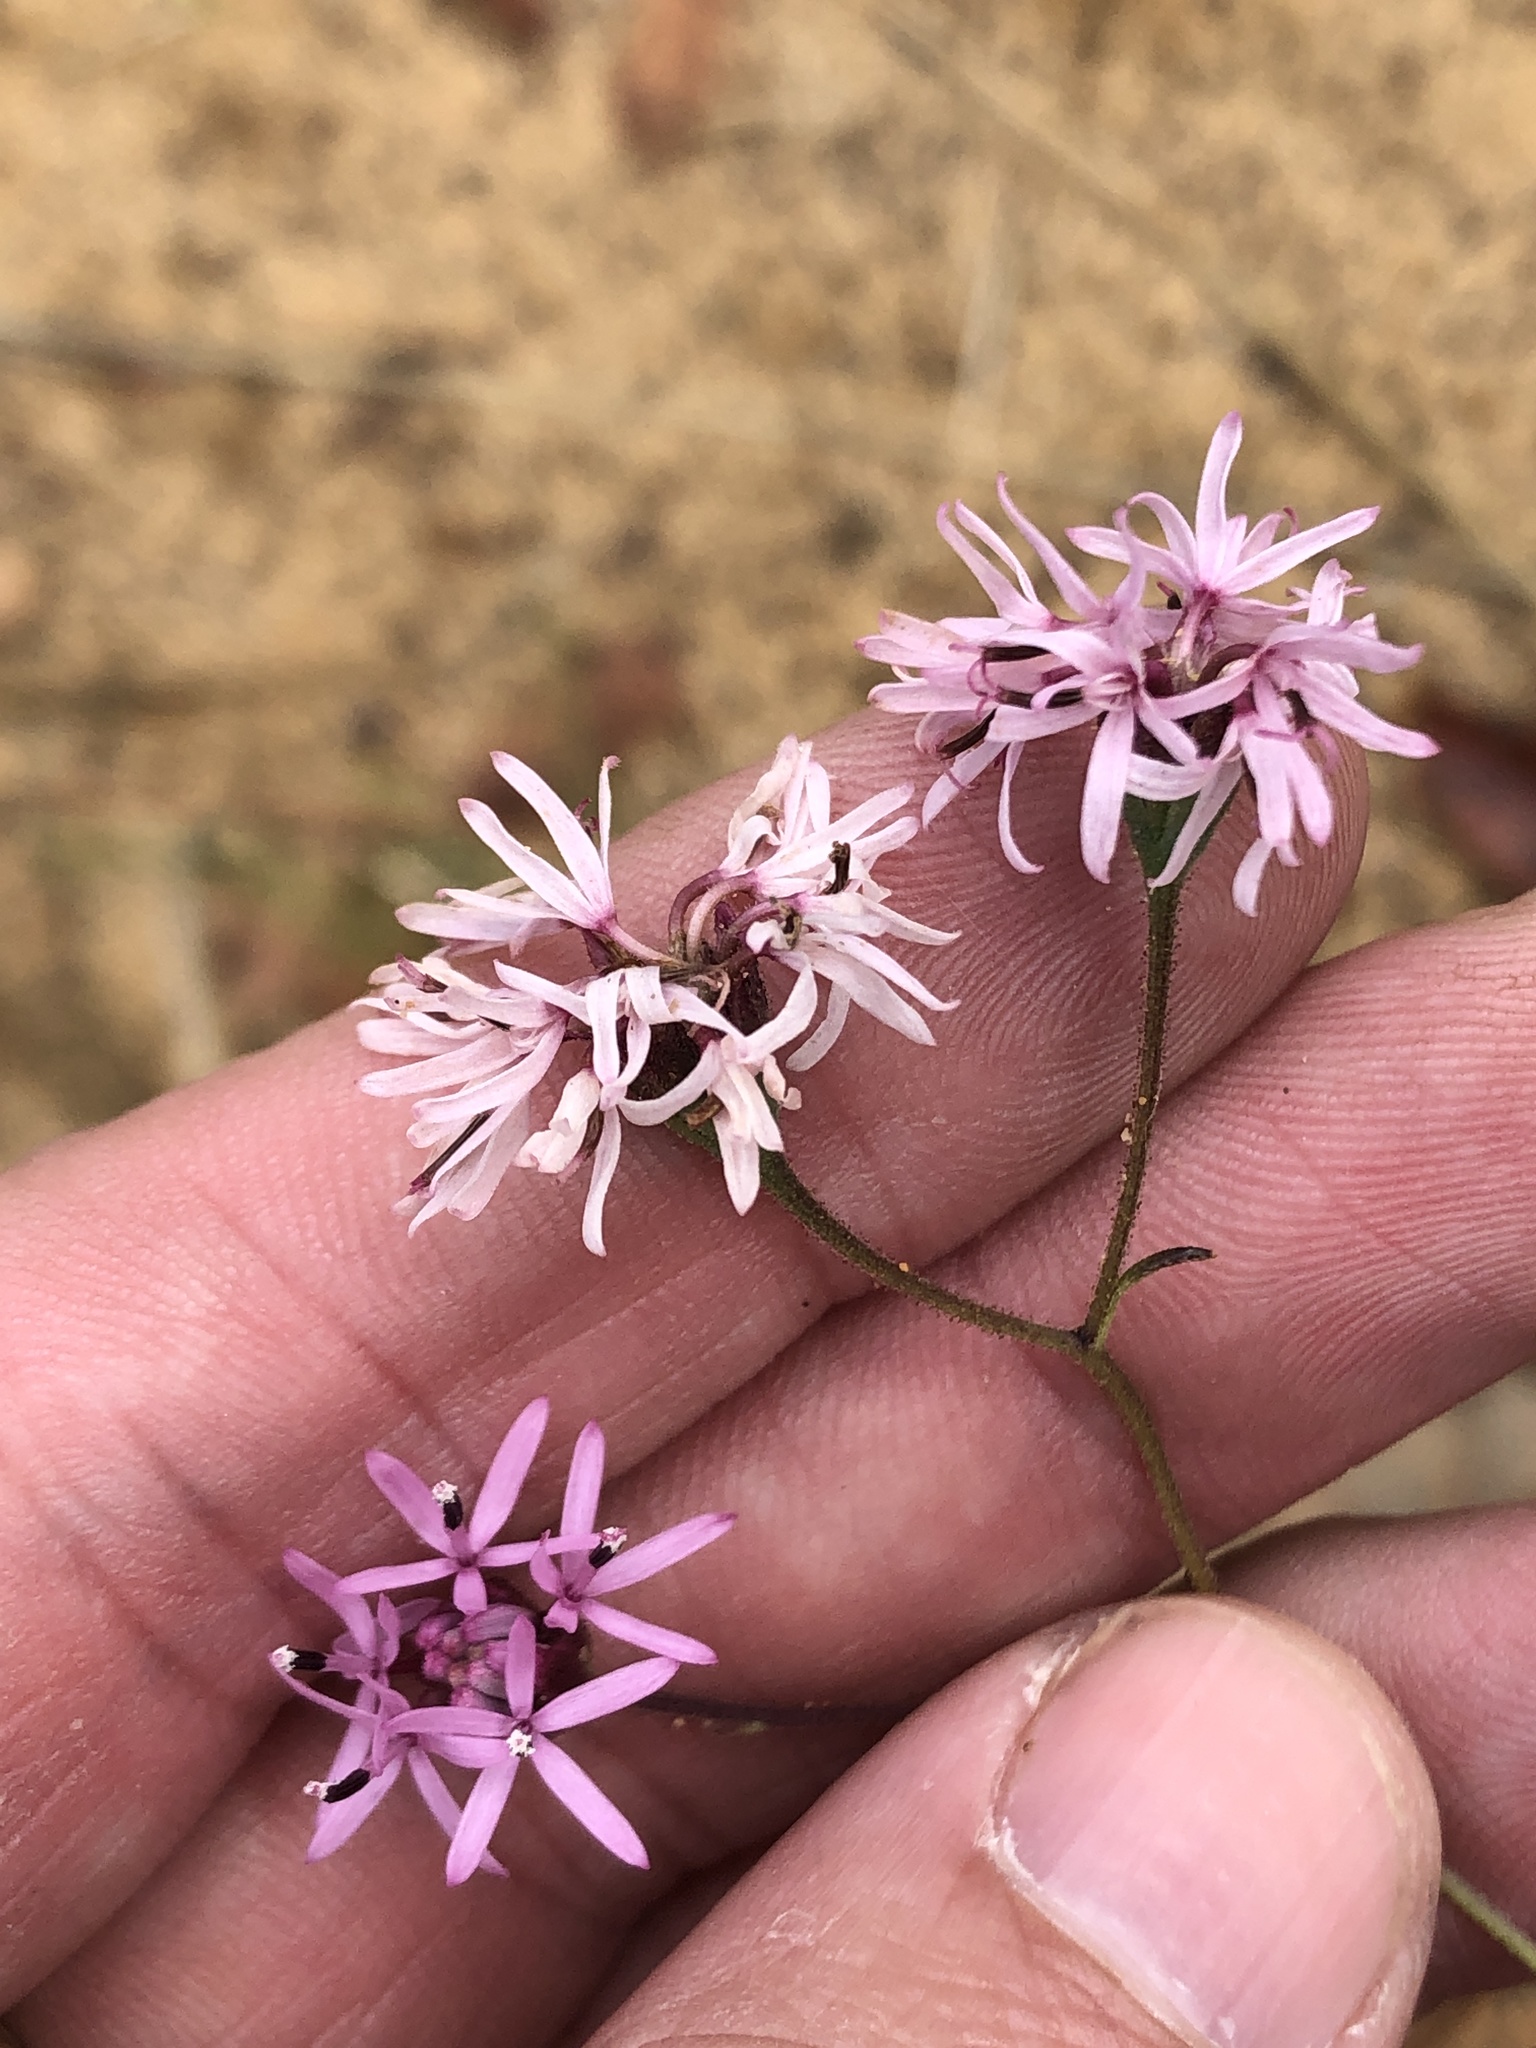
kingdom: Plantae
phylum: Tracheophyta
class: Magnoliopsida
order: Asterales
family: Asteraceae
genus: Palafoxia
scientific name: Palafoxia callosa
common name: Small palafox
